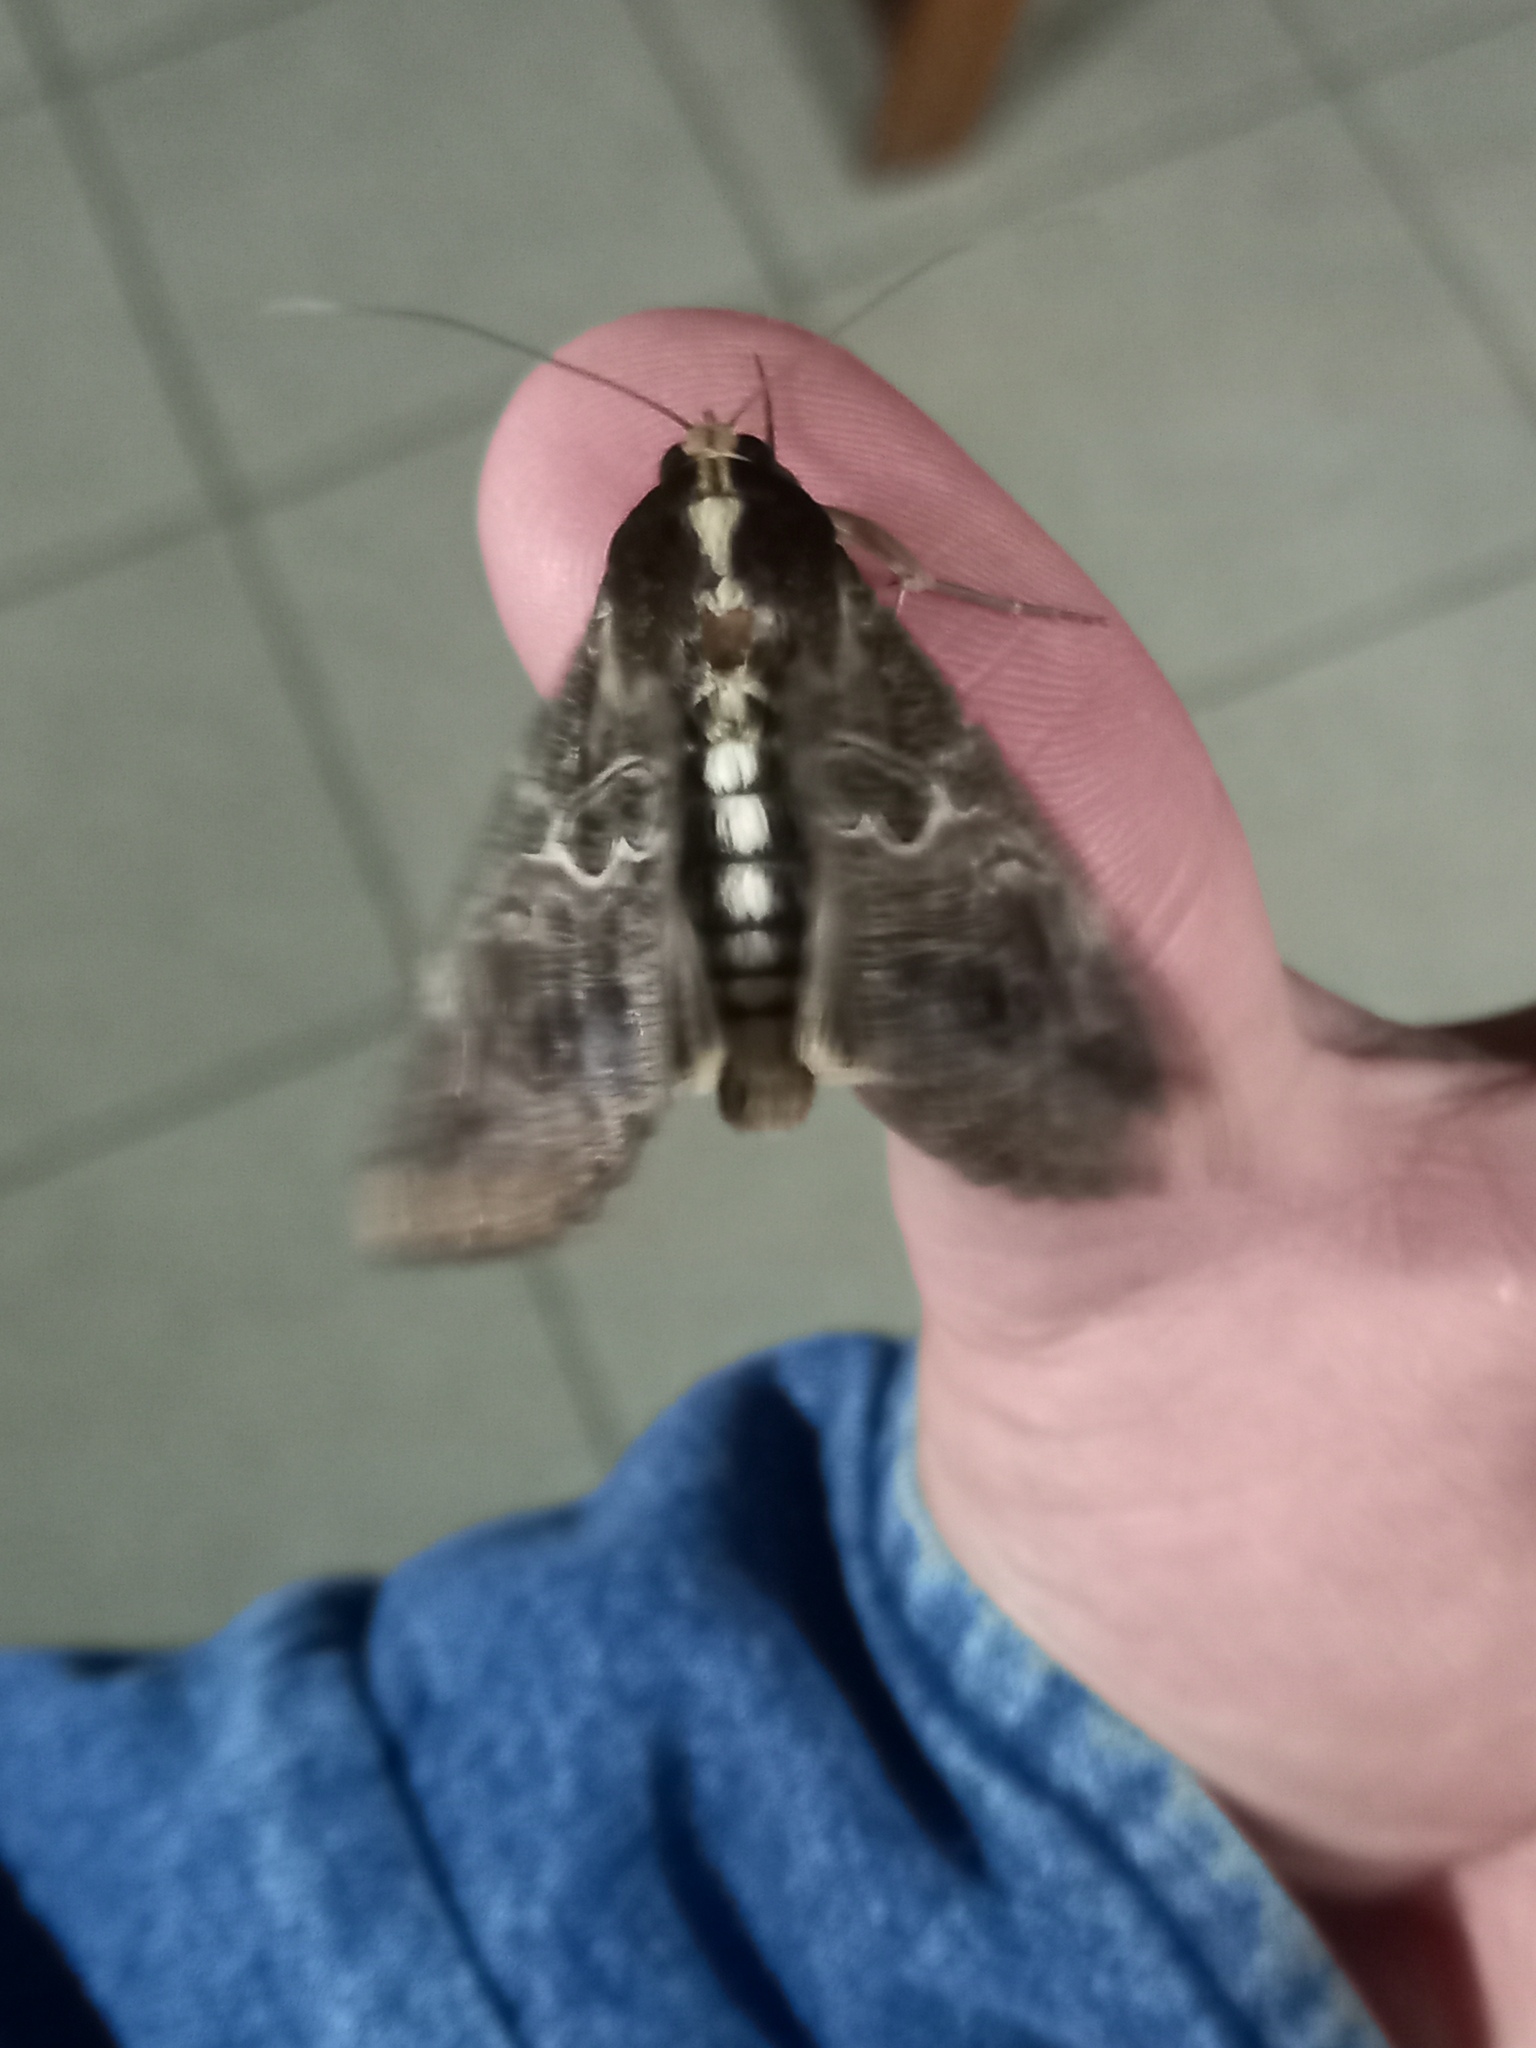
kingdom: Animalia
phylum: Arthropoda
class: Insecta
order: Lepidoptera
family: Erebidae
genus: Sphingomorpha
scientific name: Sphingomorpha chlorea
